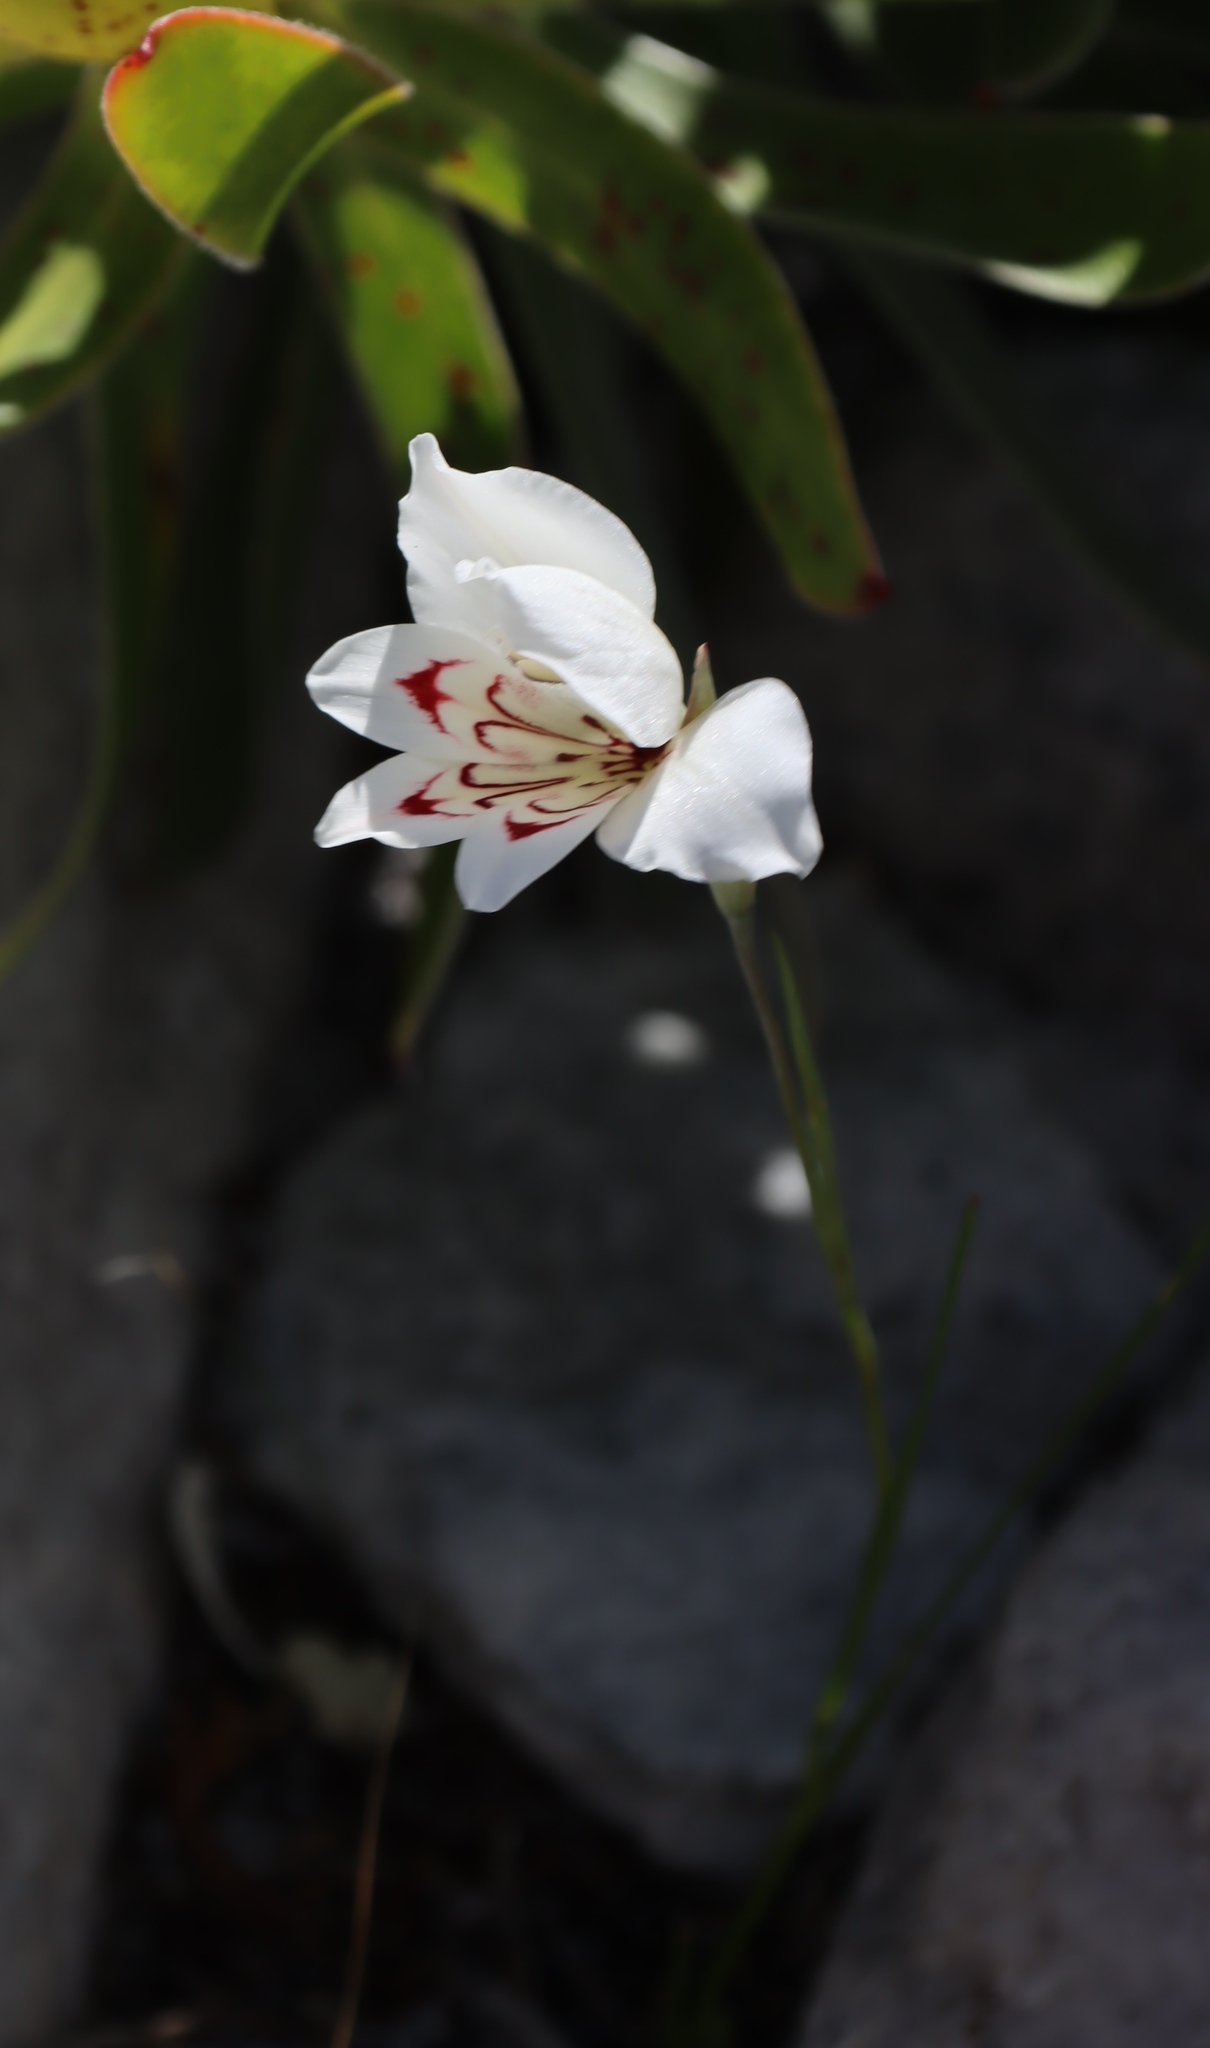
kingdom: Plantae
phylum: Tracheophyta
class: Liliopsida
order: Asparagales
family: Iridaceae
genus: Gladiolus
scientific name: Gladiolus debilis
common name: Painted-lady
